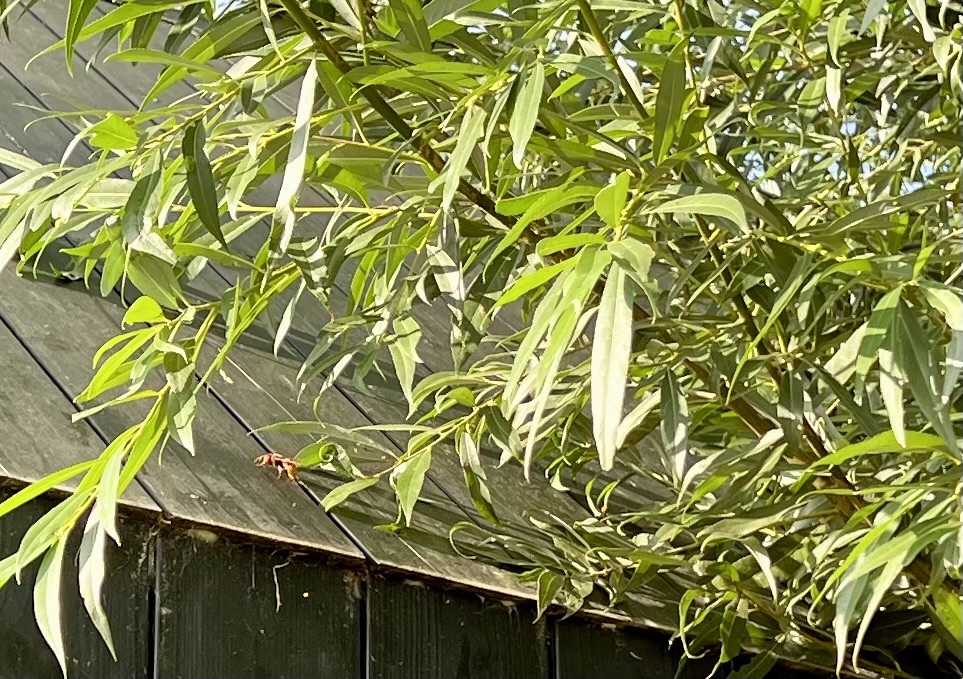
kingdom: Animalia
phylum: Arthropoda
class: Insecta
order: Hymenoptera
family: Vespidae
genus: Vespa
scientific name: Vespa crabro
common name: Hornet
